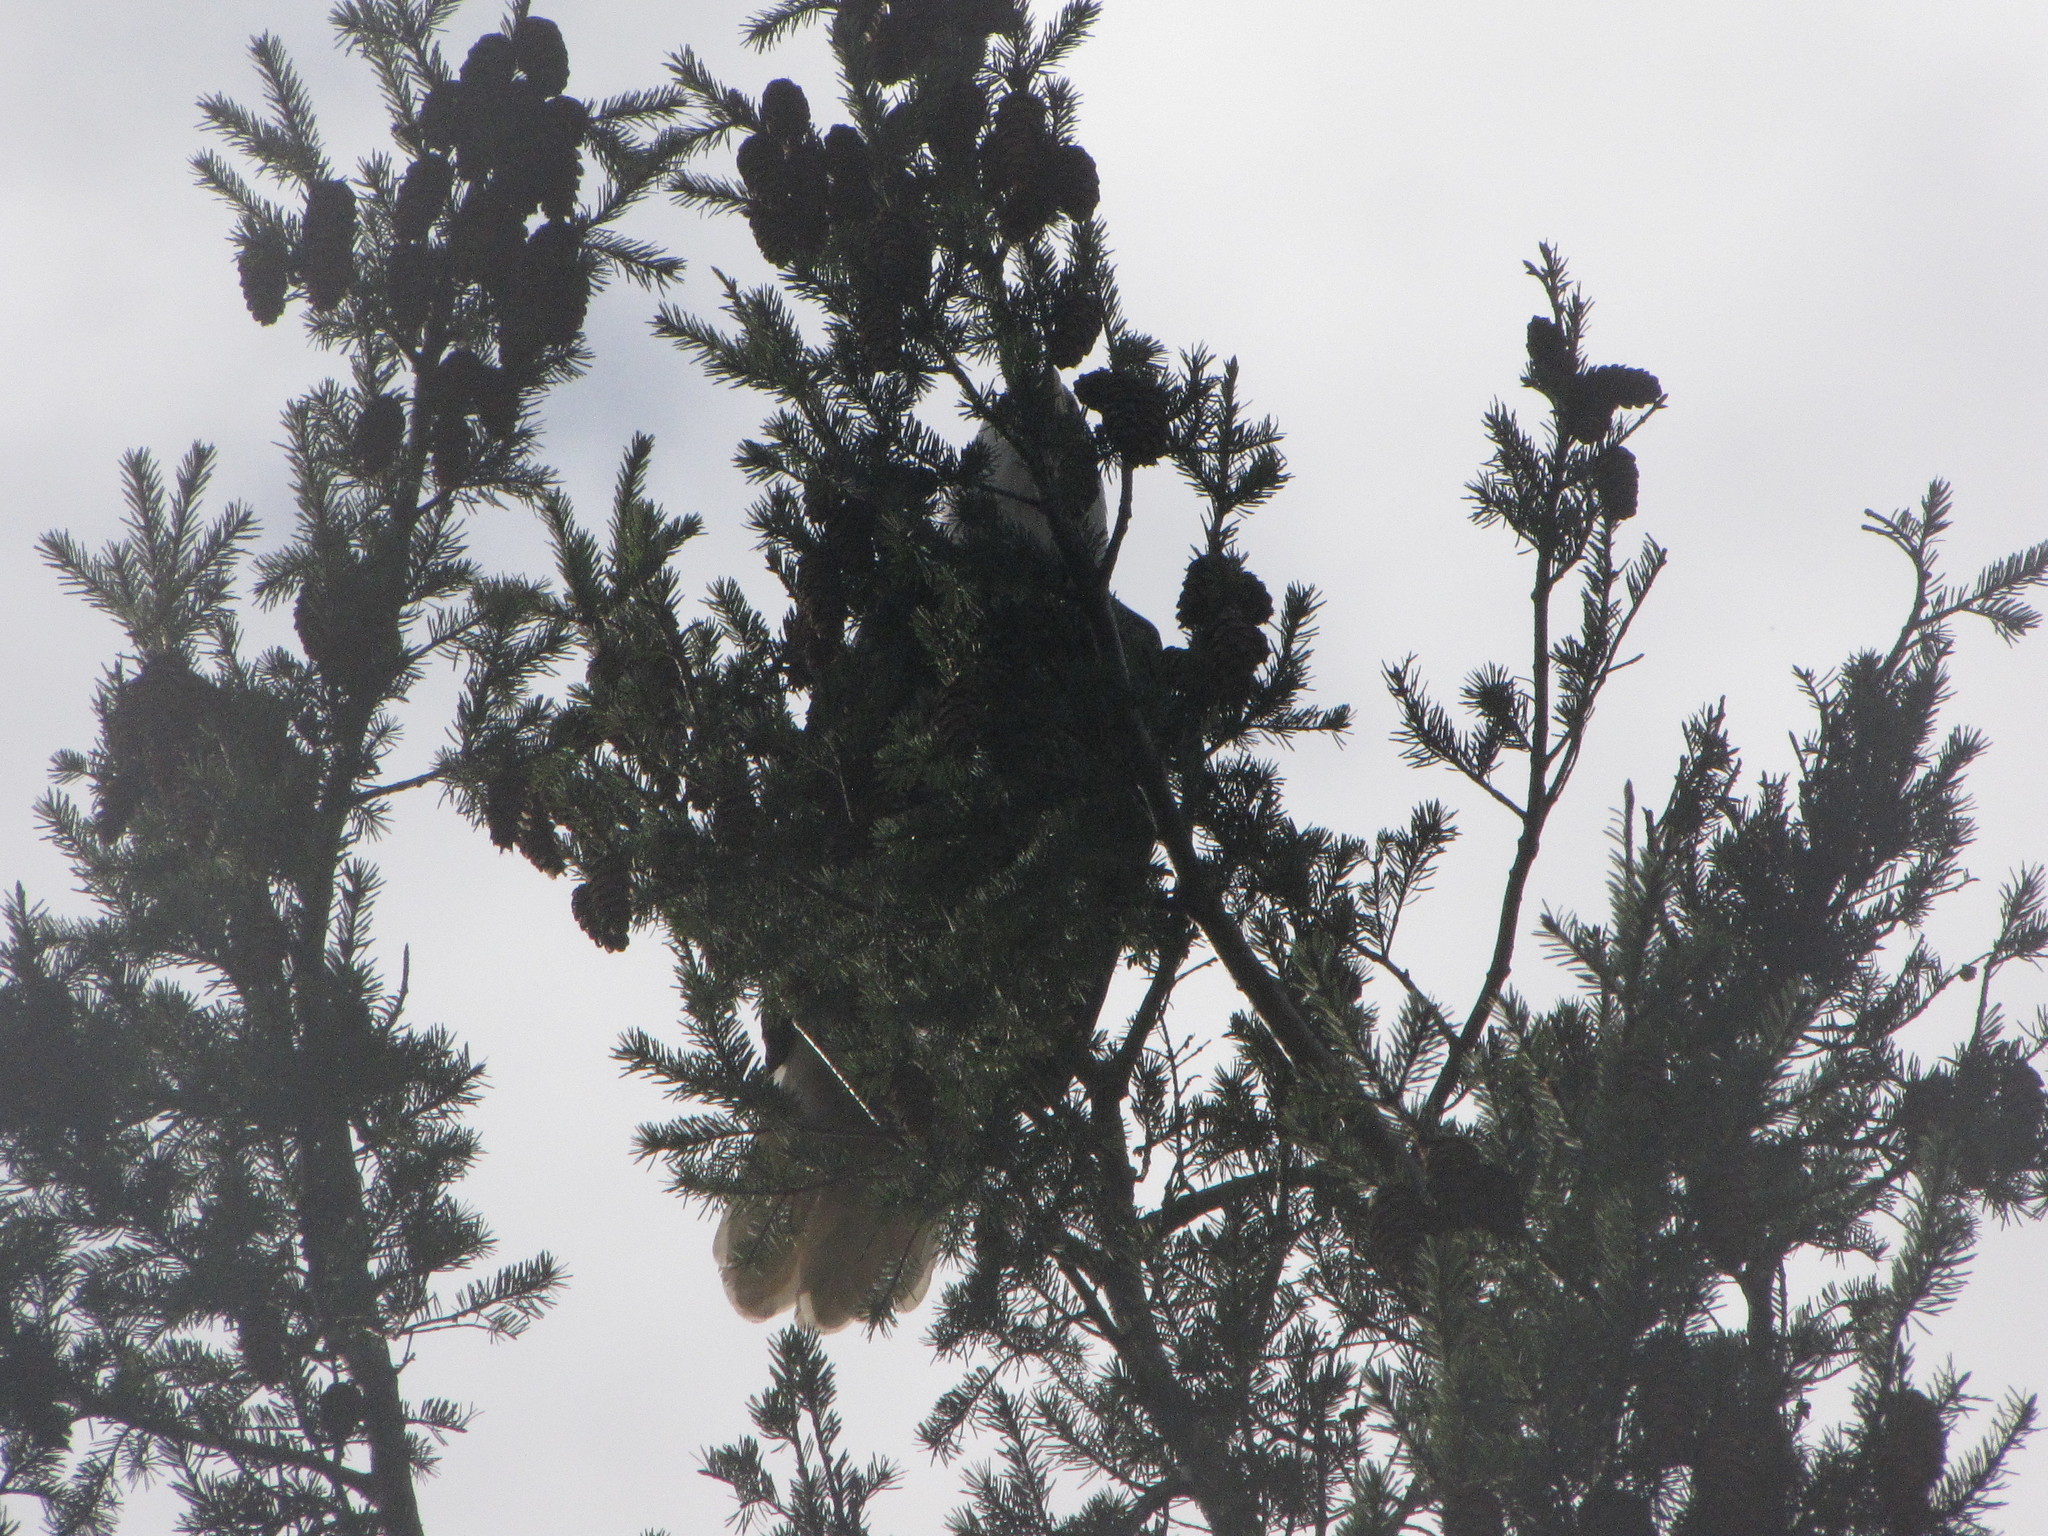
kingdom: Animalia
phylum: Chordata
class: Aves
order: Accipitriformes
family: Accipitridae
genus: Haliaeetus
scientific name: Haliaeetus leucocephalus
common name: Bald eagle
